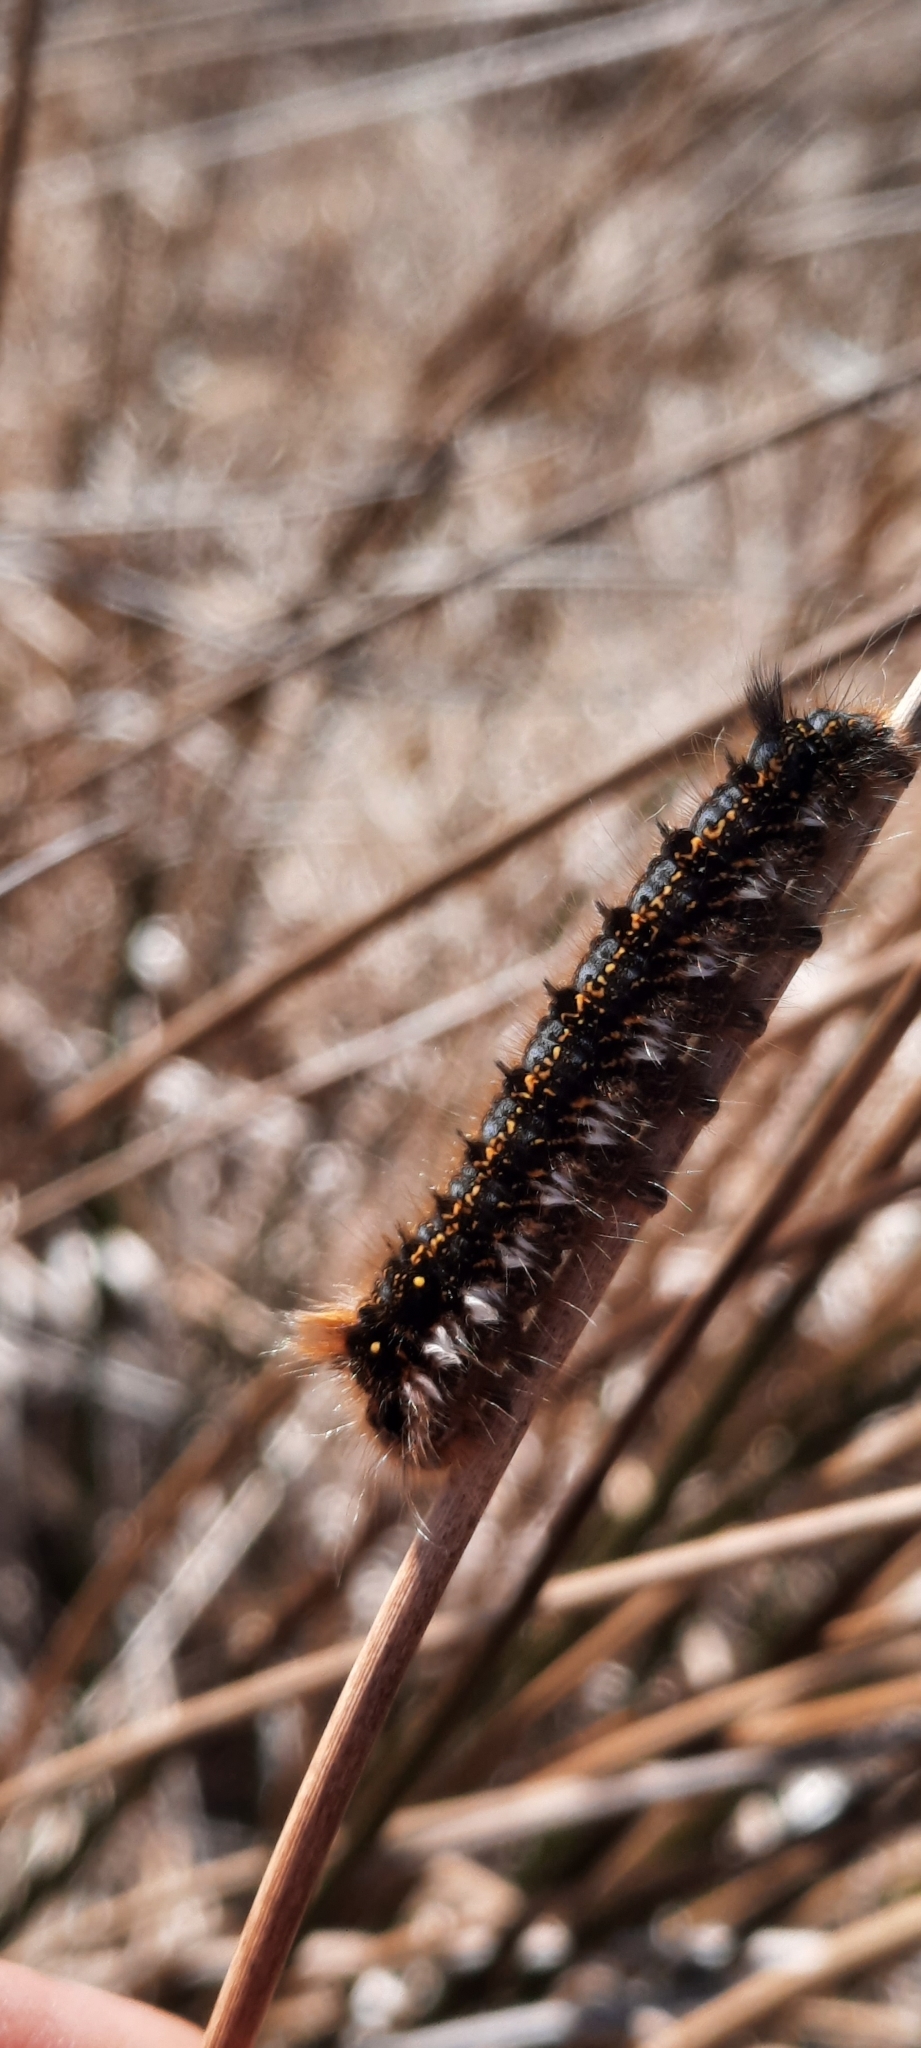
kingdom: Animalia
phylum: Arthropoda
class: Insecta
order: Lepidoptera
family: Lasiocampidae
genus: Euthrix
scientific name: Euthrix potatoria
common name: Drinker
